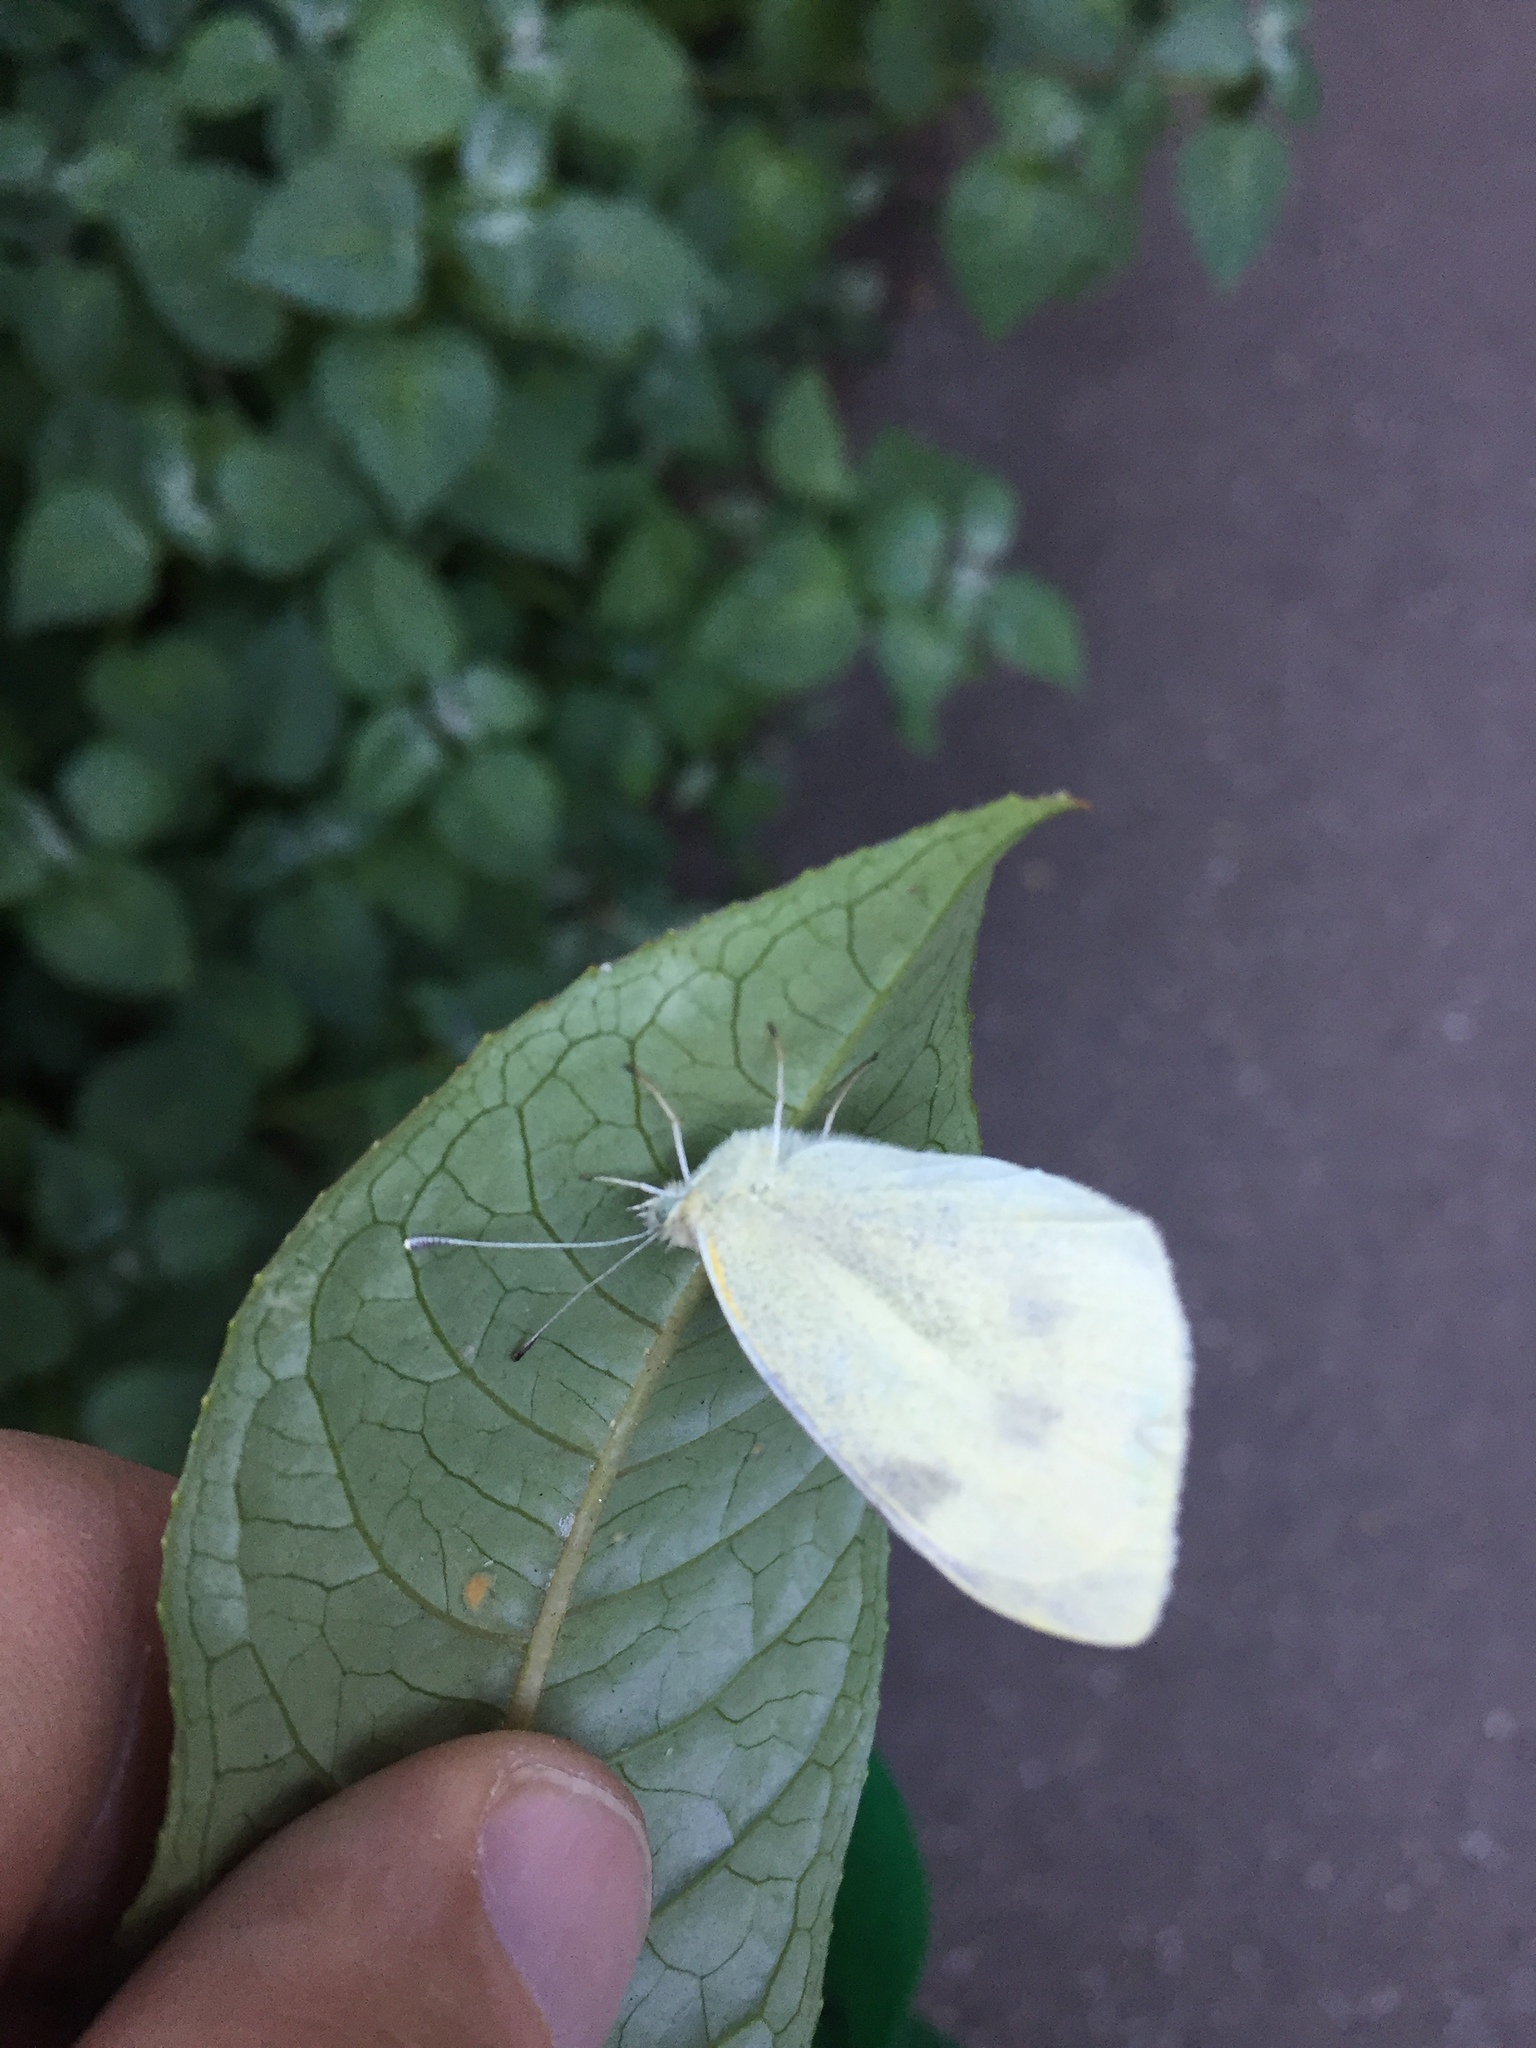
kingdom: Animalia
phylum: Arthropoda
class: Insecta
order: Lepidoptera
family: Pieridae
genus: Pieris
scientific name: Pieris rapae
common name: Small white
